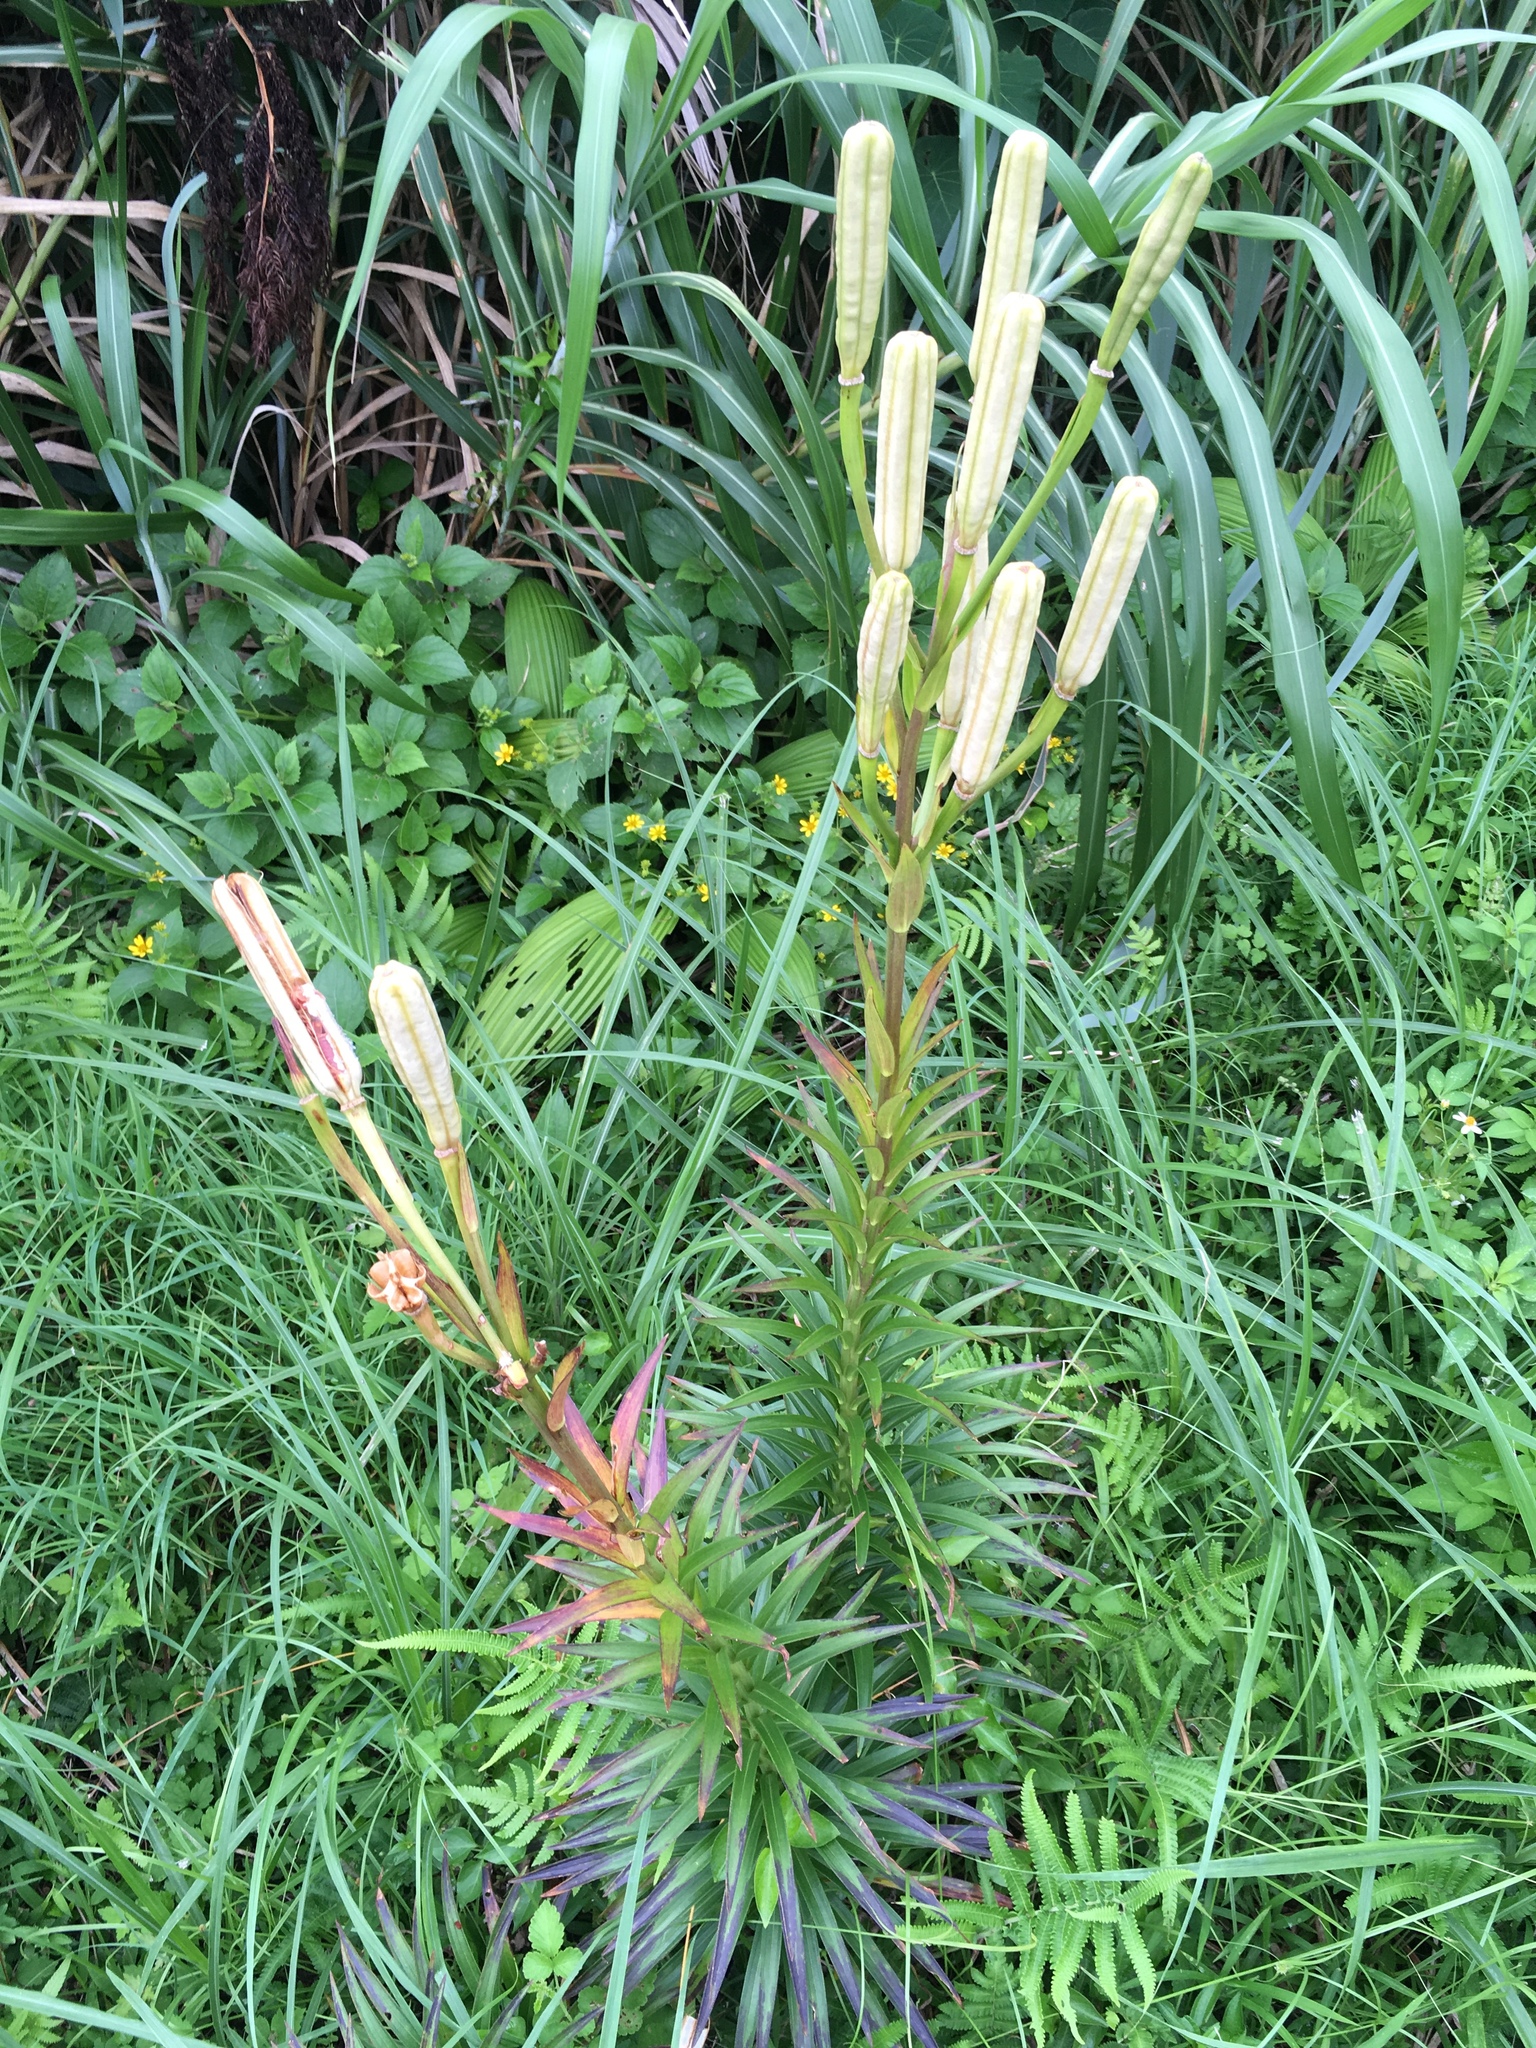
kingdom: Plantae
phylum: Tracheophyta
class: Liliopsida
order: Liliales
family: Liliaceae
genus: Lilium
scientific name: Lilium longiflorum
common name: Easter lily
